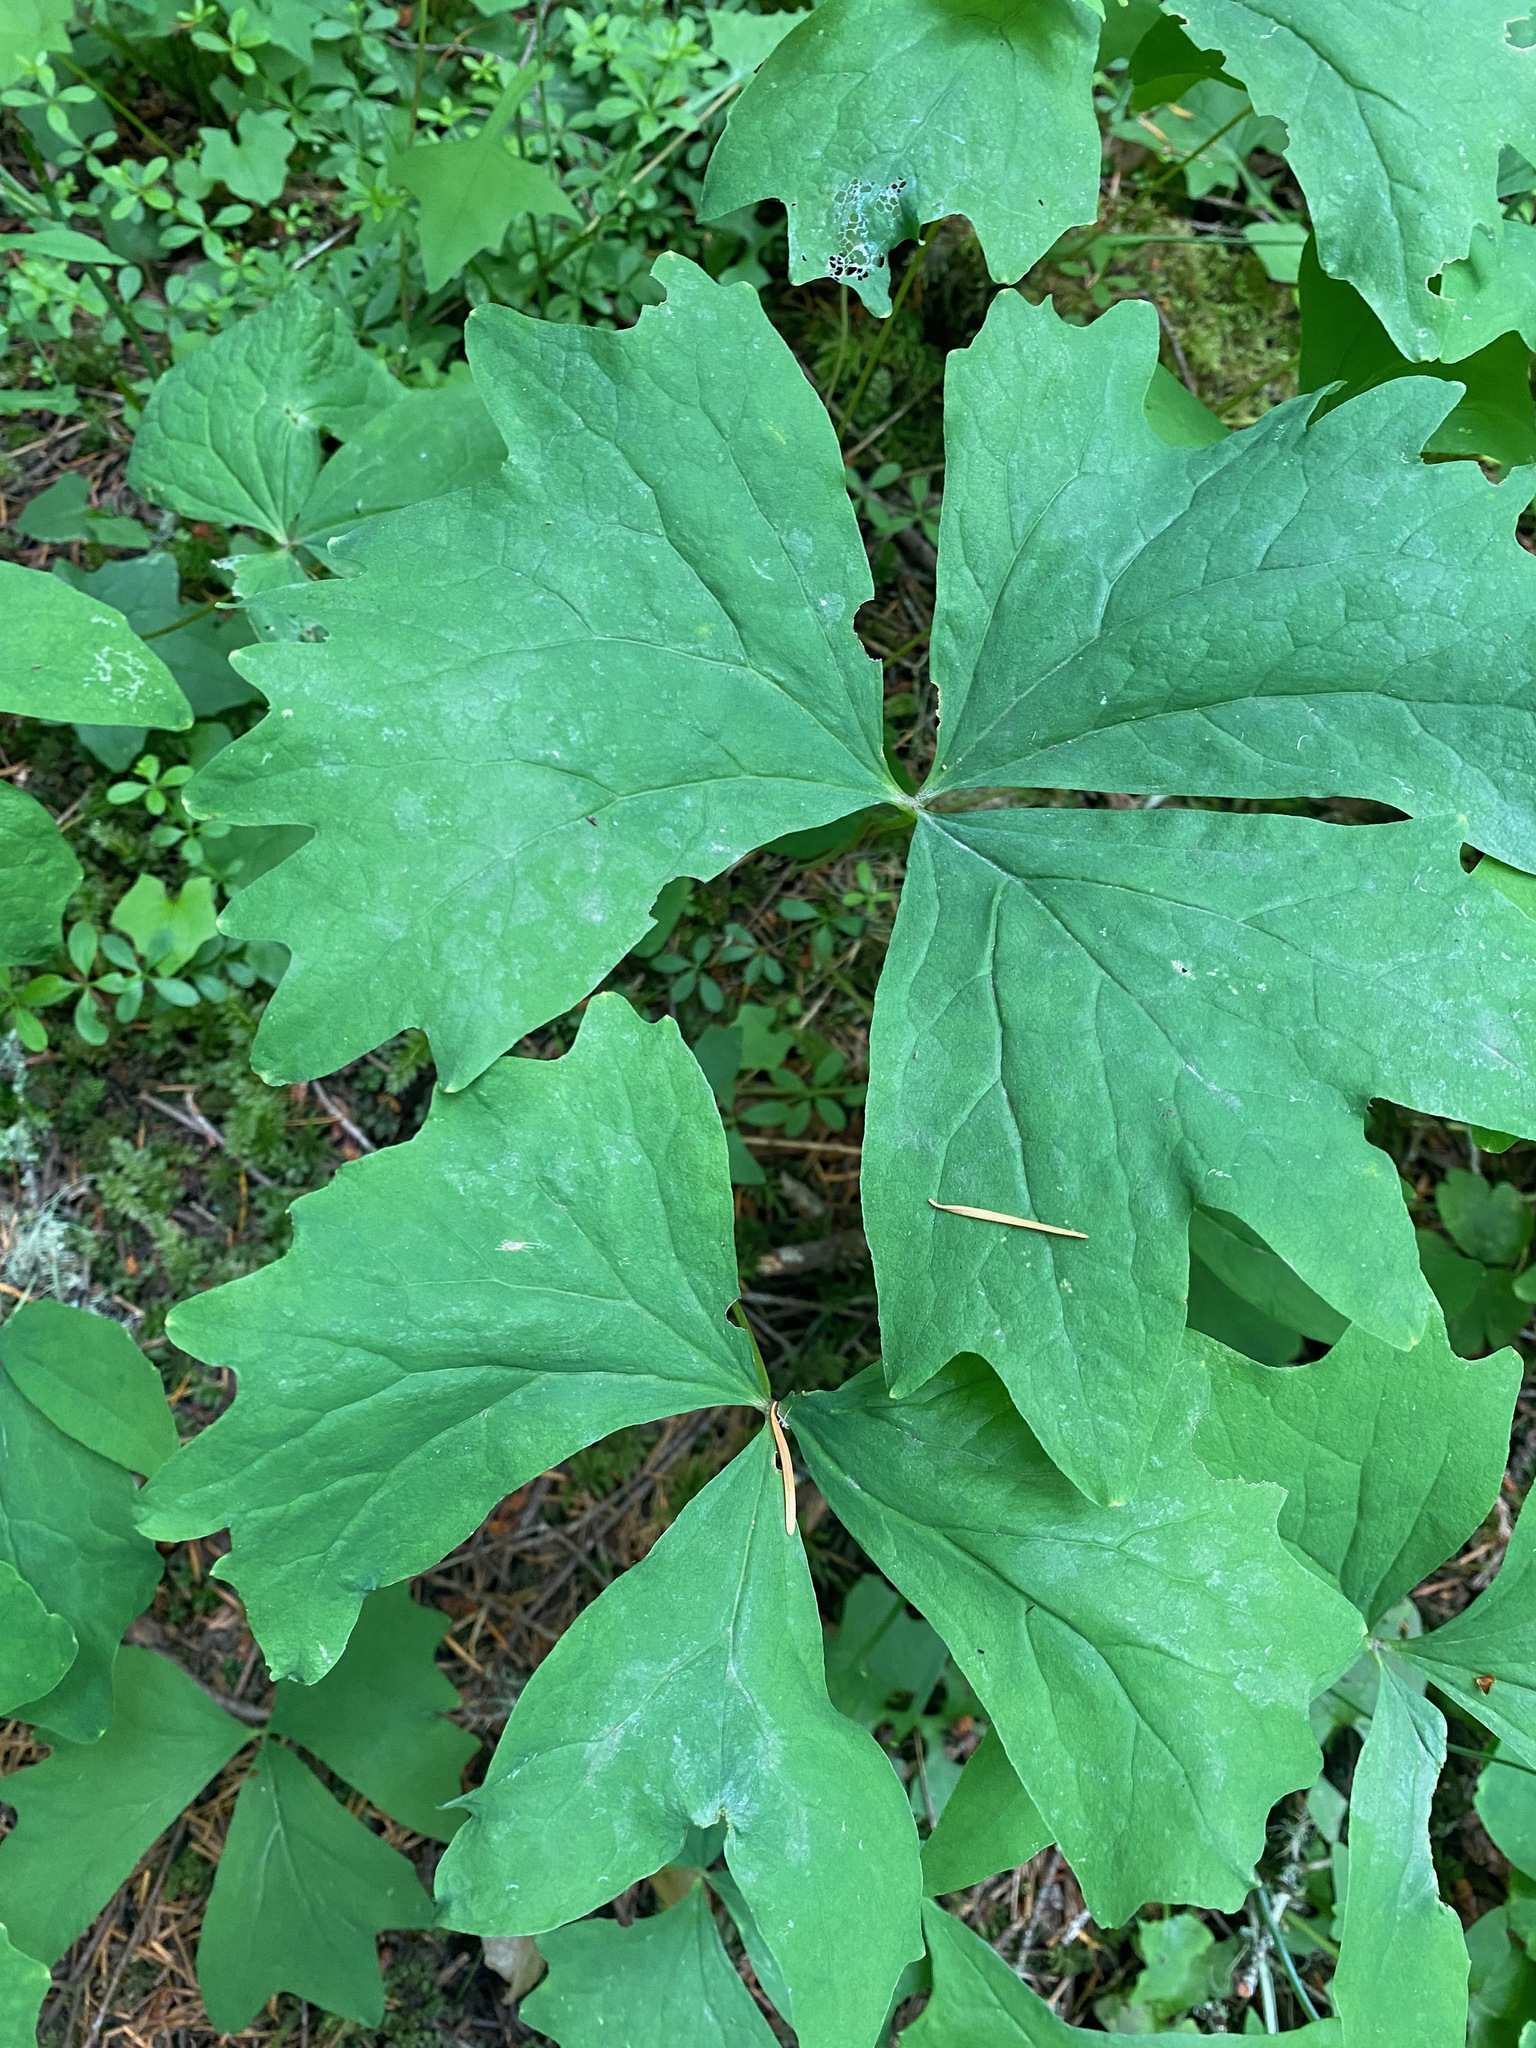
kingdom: Plantae
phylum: Tracheophyta
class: Magnoliopsida
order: Ranunculales
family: Berberidaceae
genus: Achlys
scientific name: Achlys triphylla
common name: Vanilla-leaf
